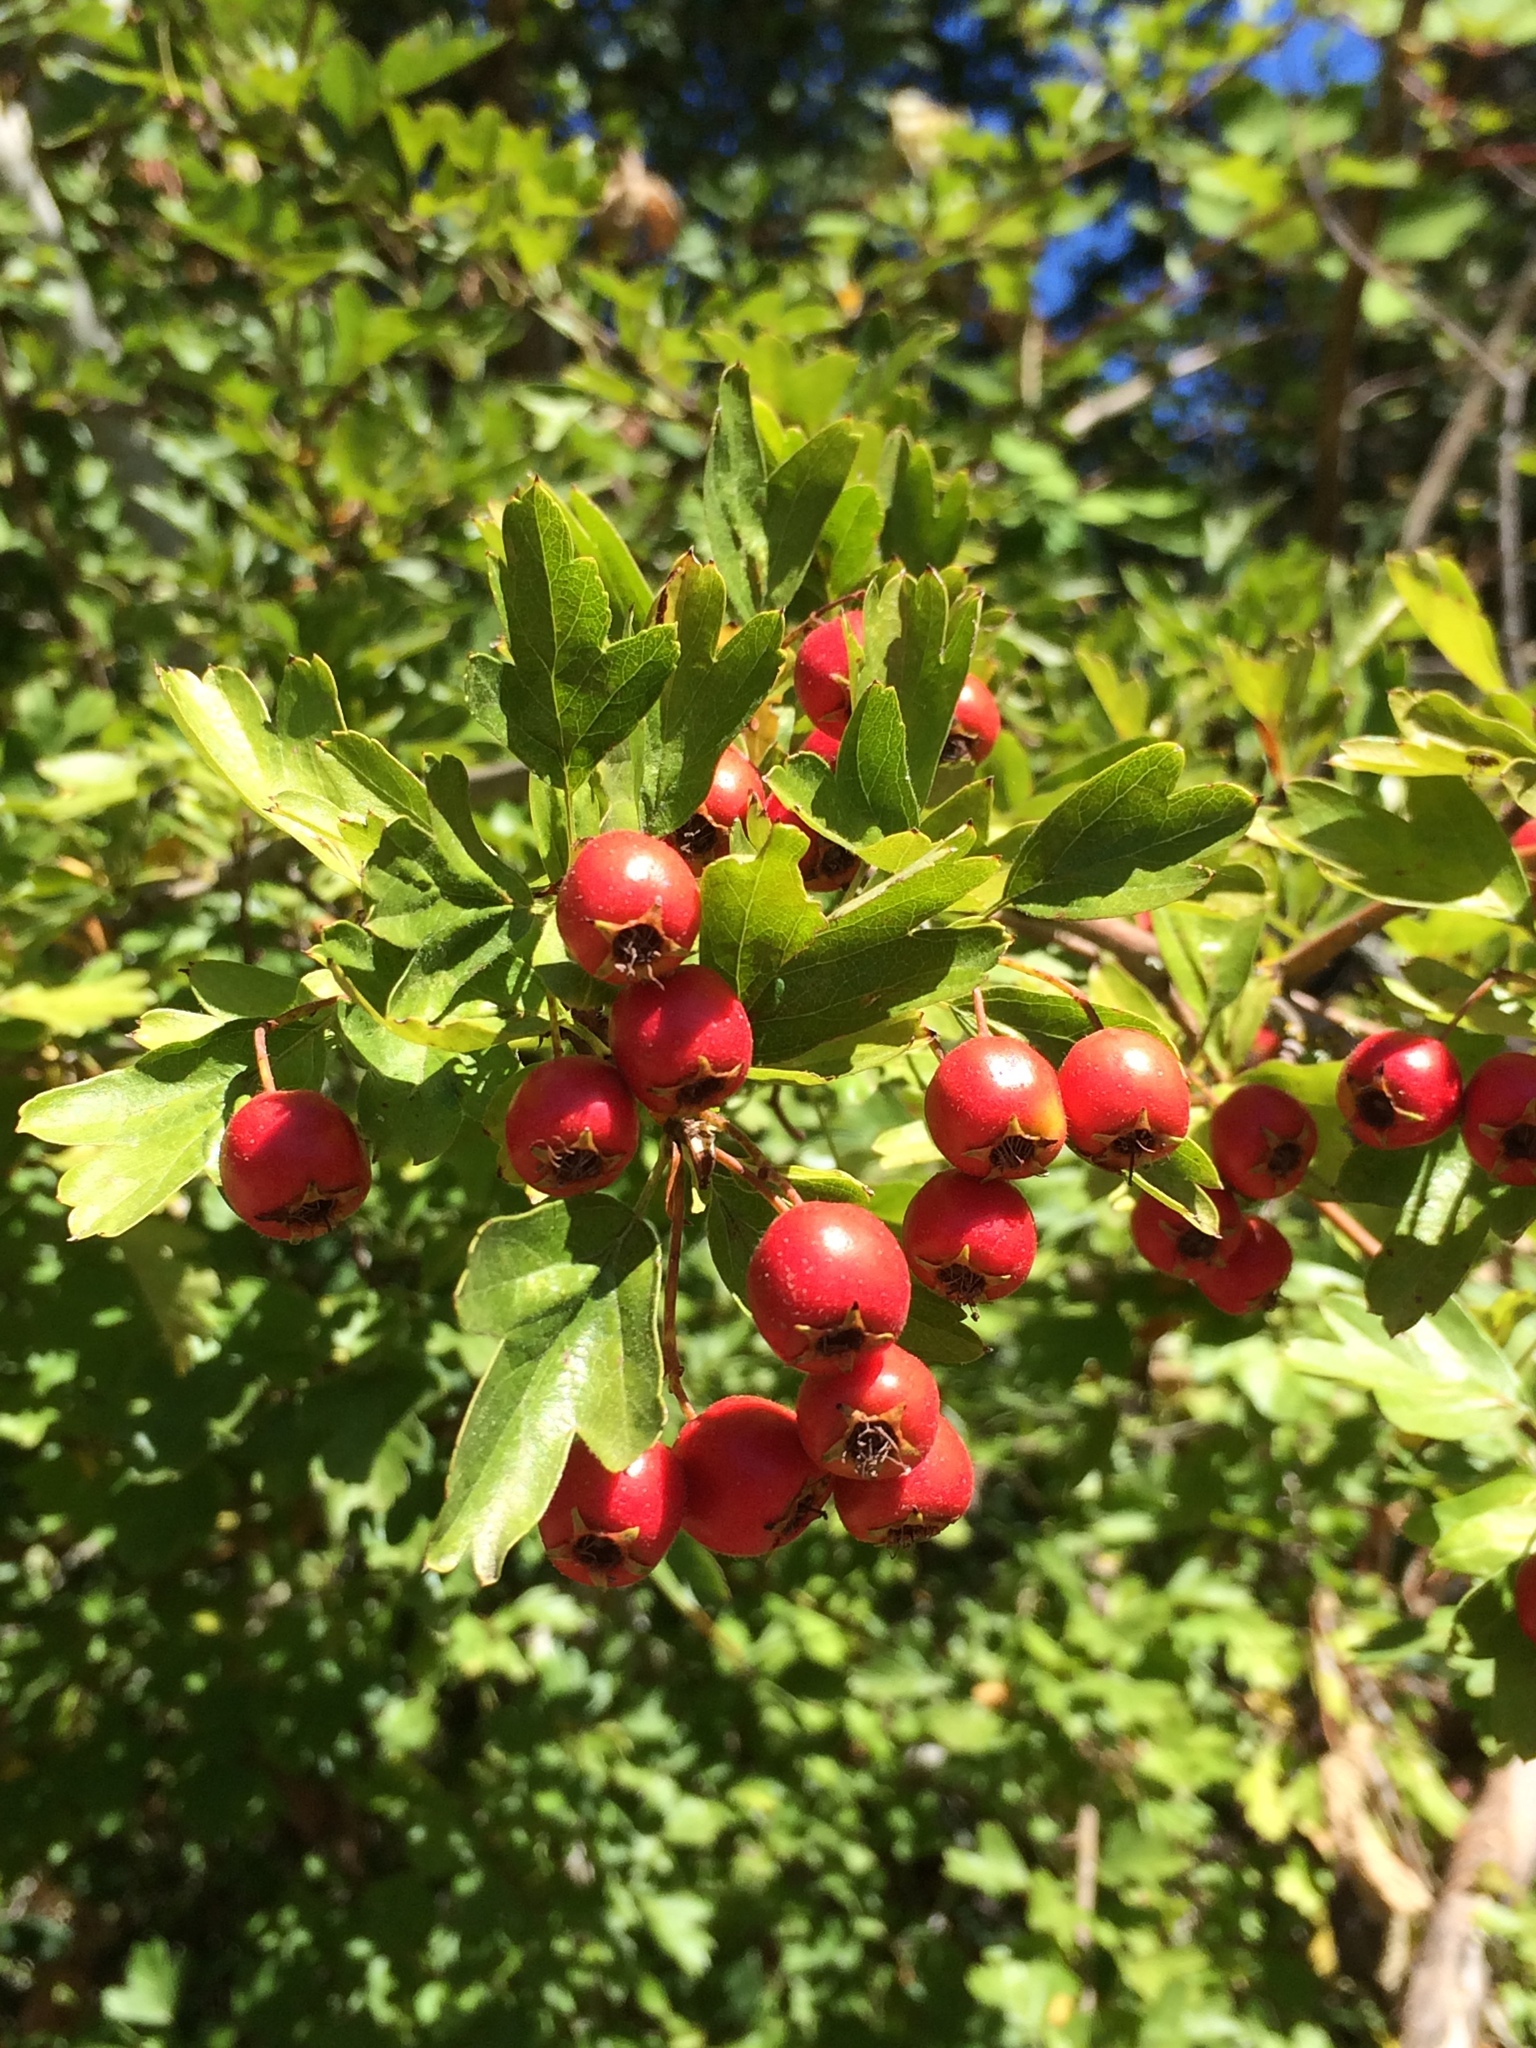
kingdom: Plantae
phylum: Tracheophyta
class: Magnoliopsida
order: Rosales
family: Rosaceae
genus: Crataegus
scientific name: Crataegus monogyna
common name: Hawthorn
